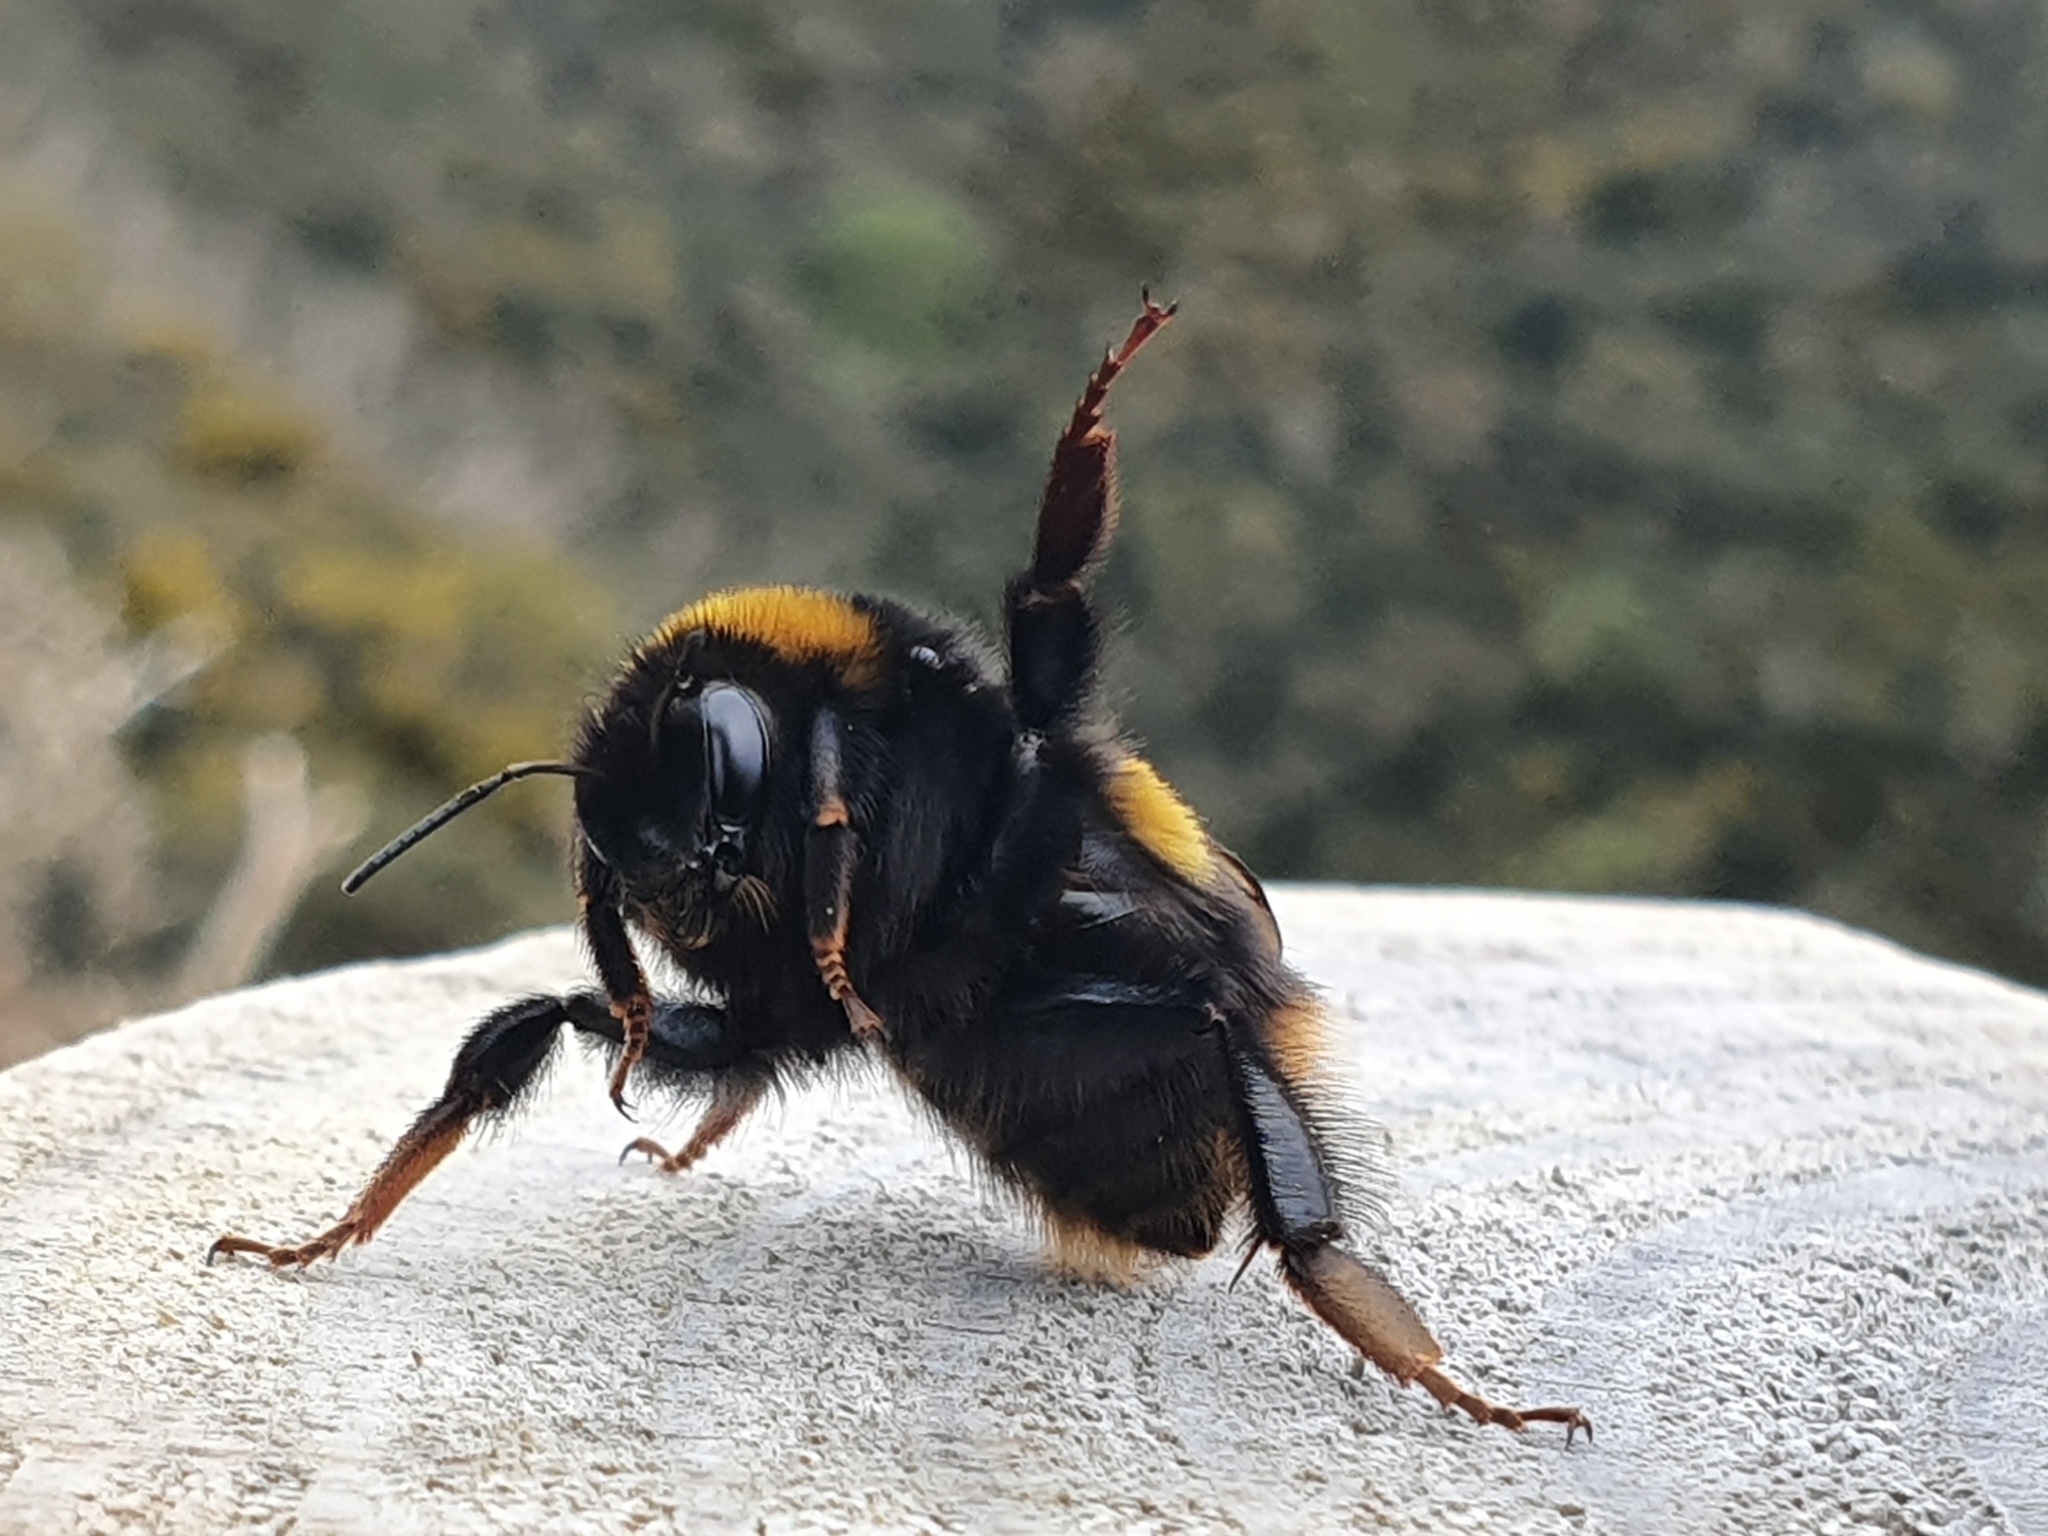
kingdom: Animalia
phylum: Arthropoda
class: Insecta
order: Hymenoptera
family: Apidae
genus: Bombus
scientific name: Bombus terrestris
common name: Buff-tailed bumblebee
